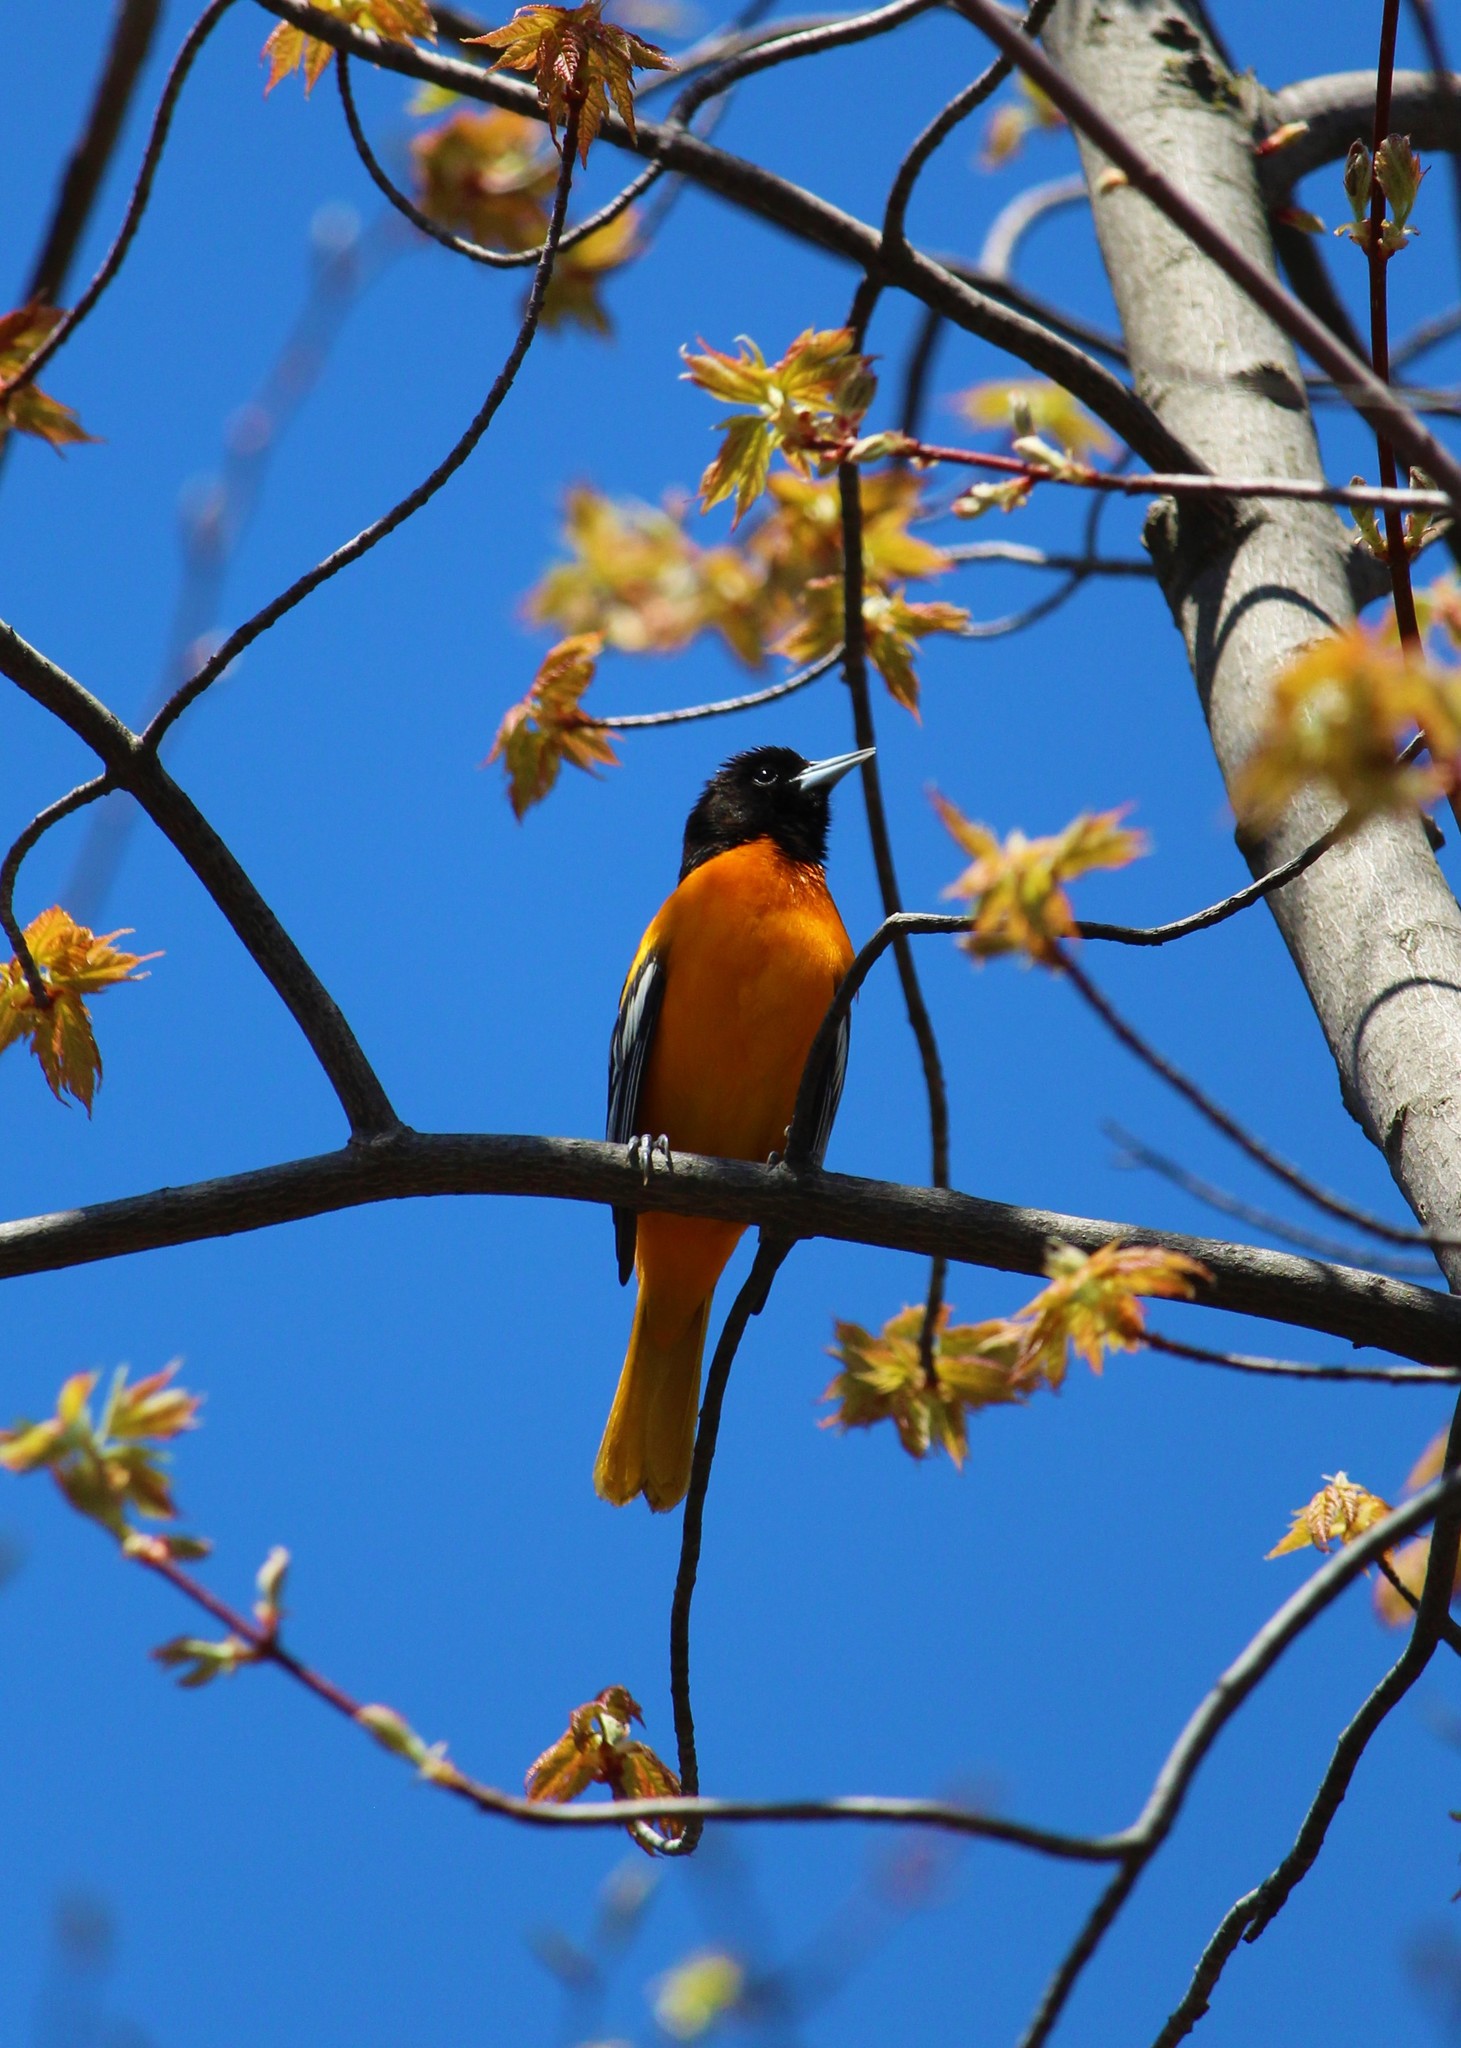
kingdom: Animalia
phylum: Chordata
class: Aves
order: Passeriformes
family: Icteridae
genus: Icterus
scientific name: Icterus galbula
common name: Baltimore oriole
